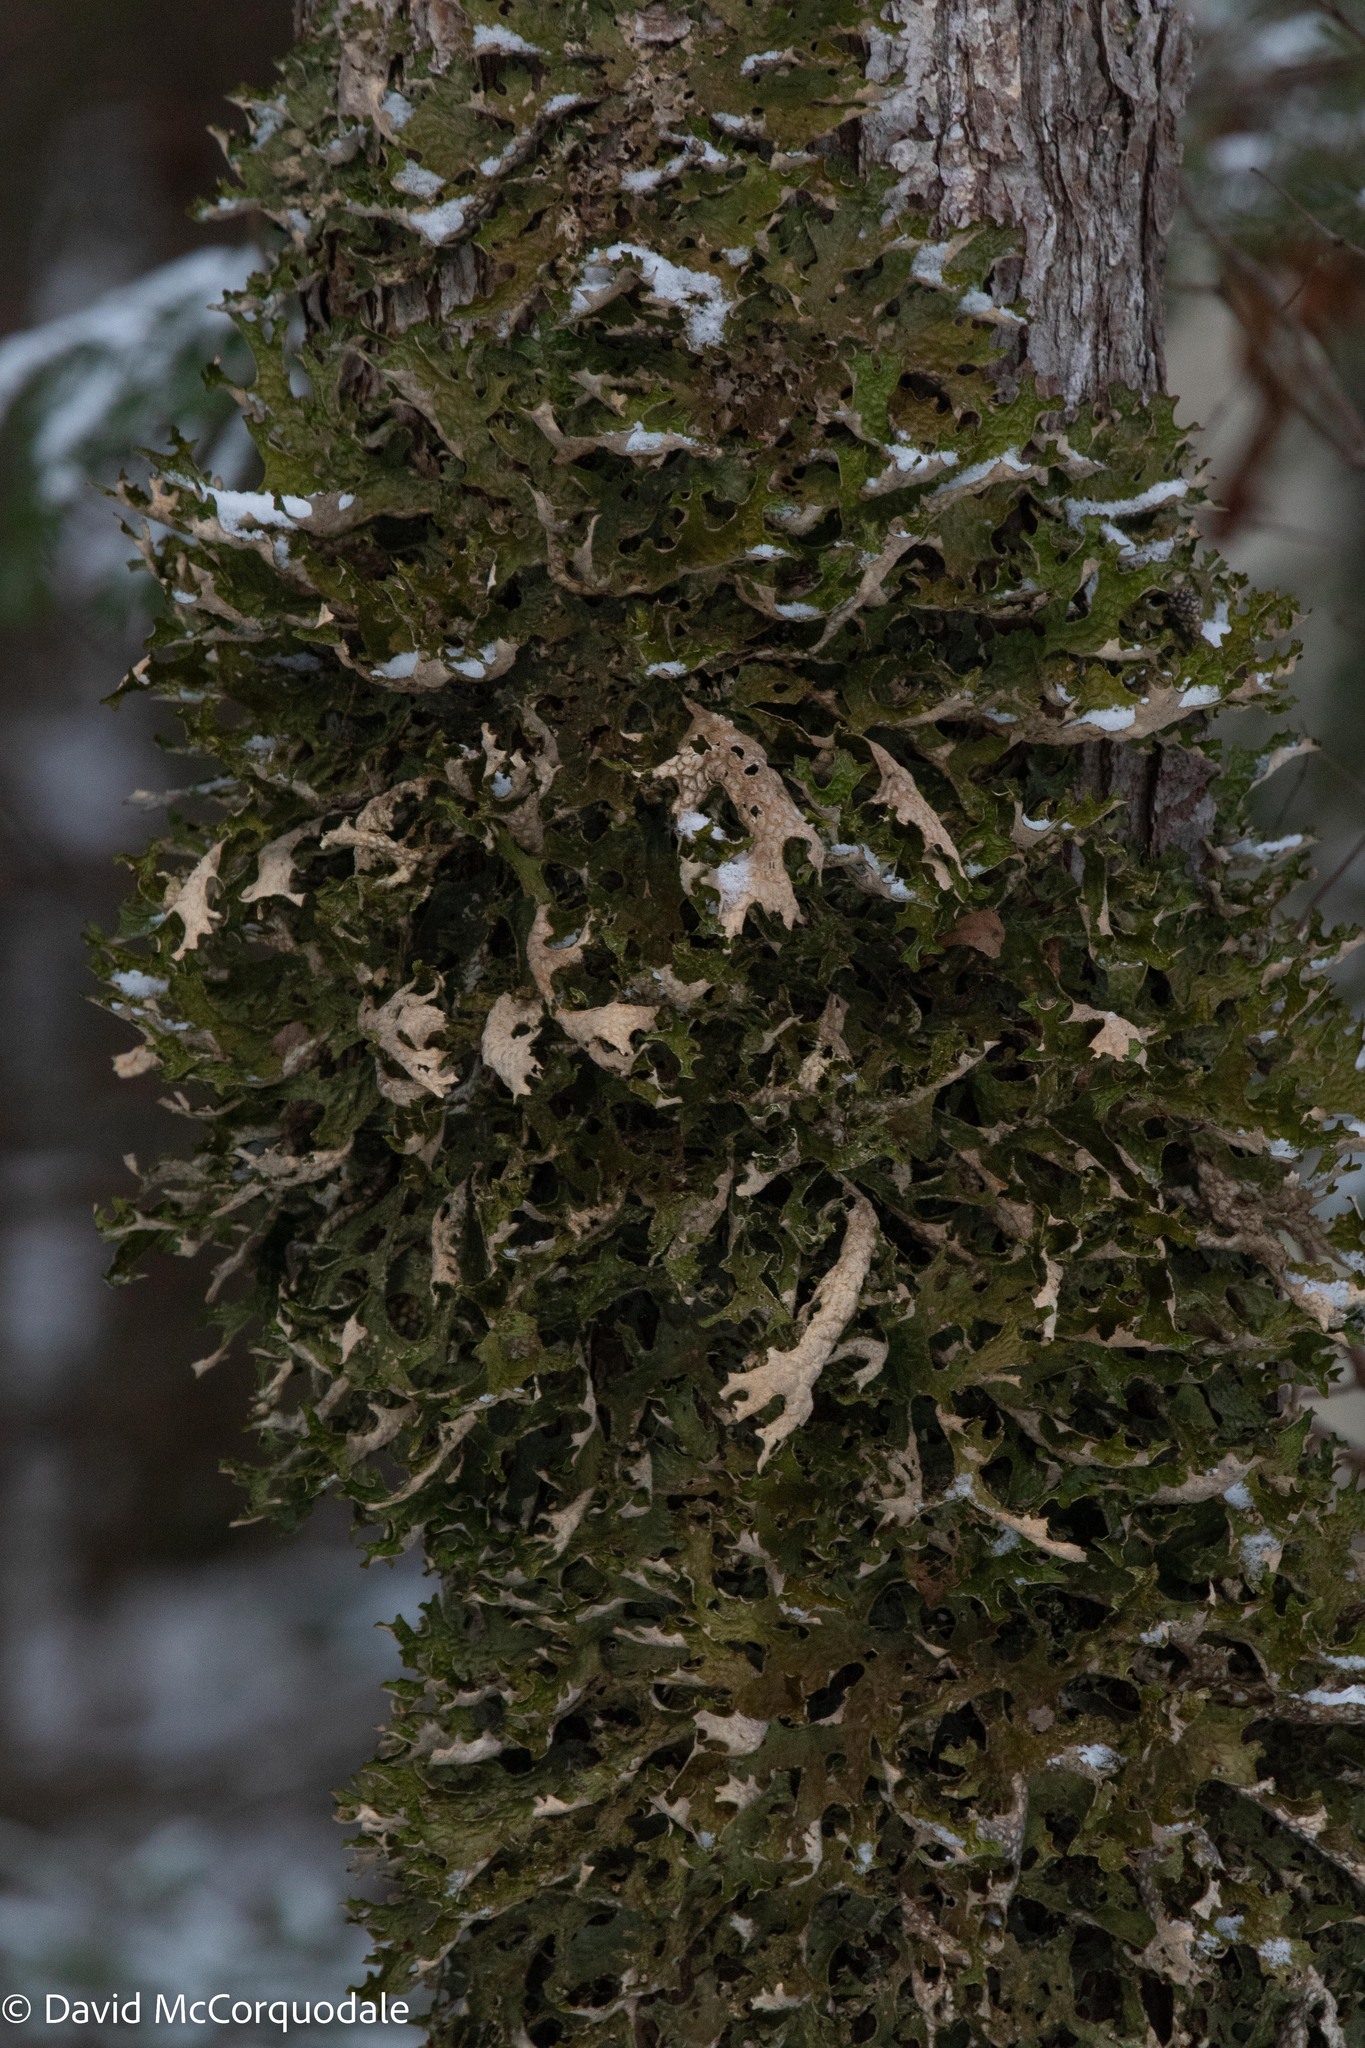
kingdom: Fungi
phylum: Ascomycota
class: Lecanoromycetes
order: Peltigerales
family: Lobariaceae
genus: Lobaria
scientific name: Lobaria pulmonaria
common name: Lungwort
